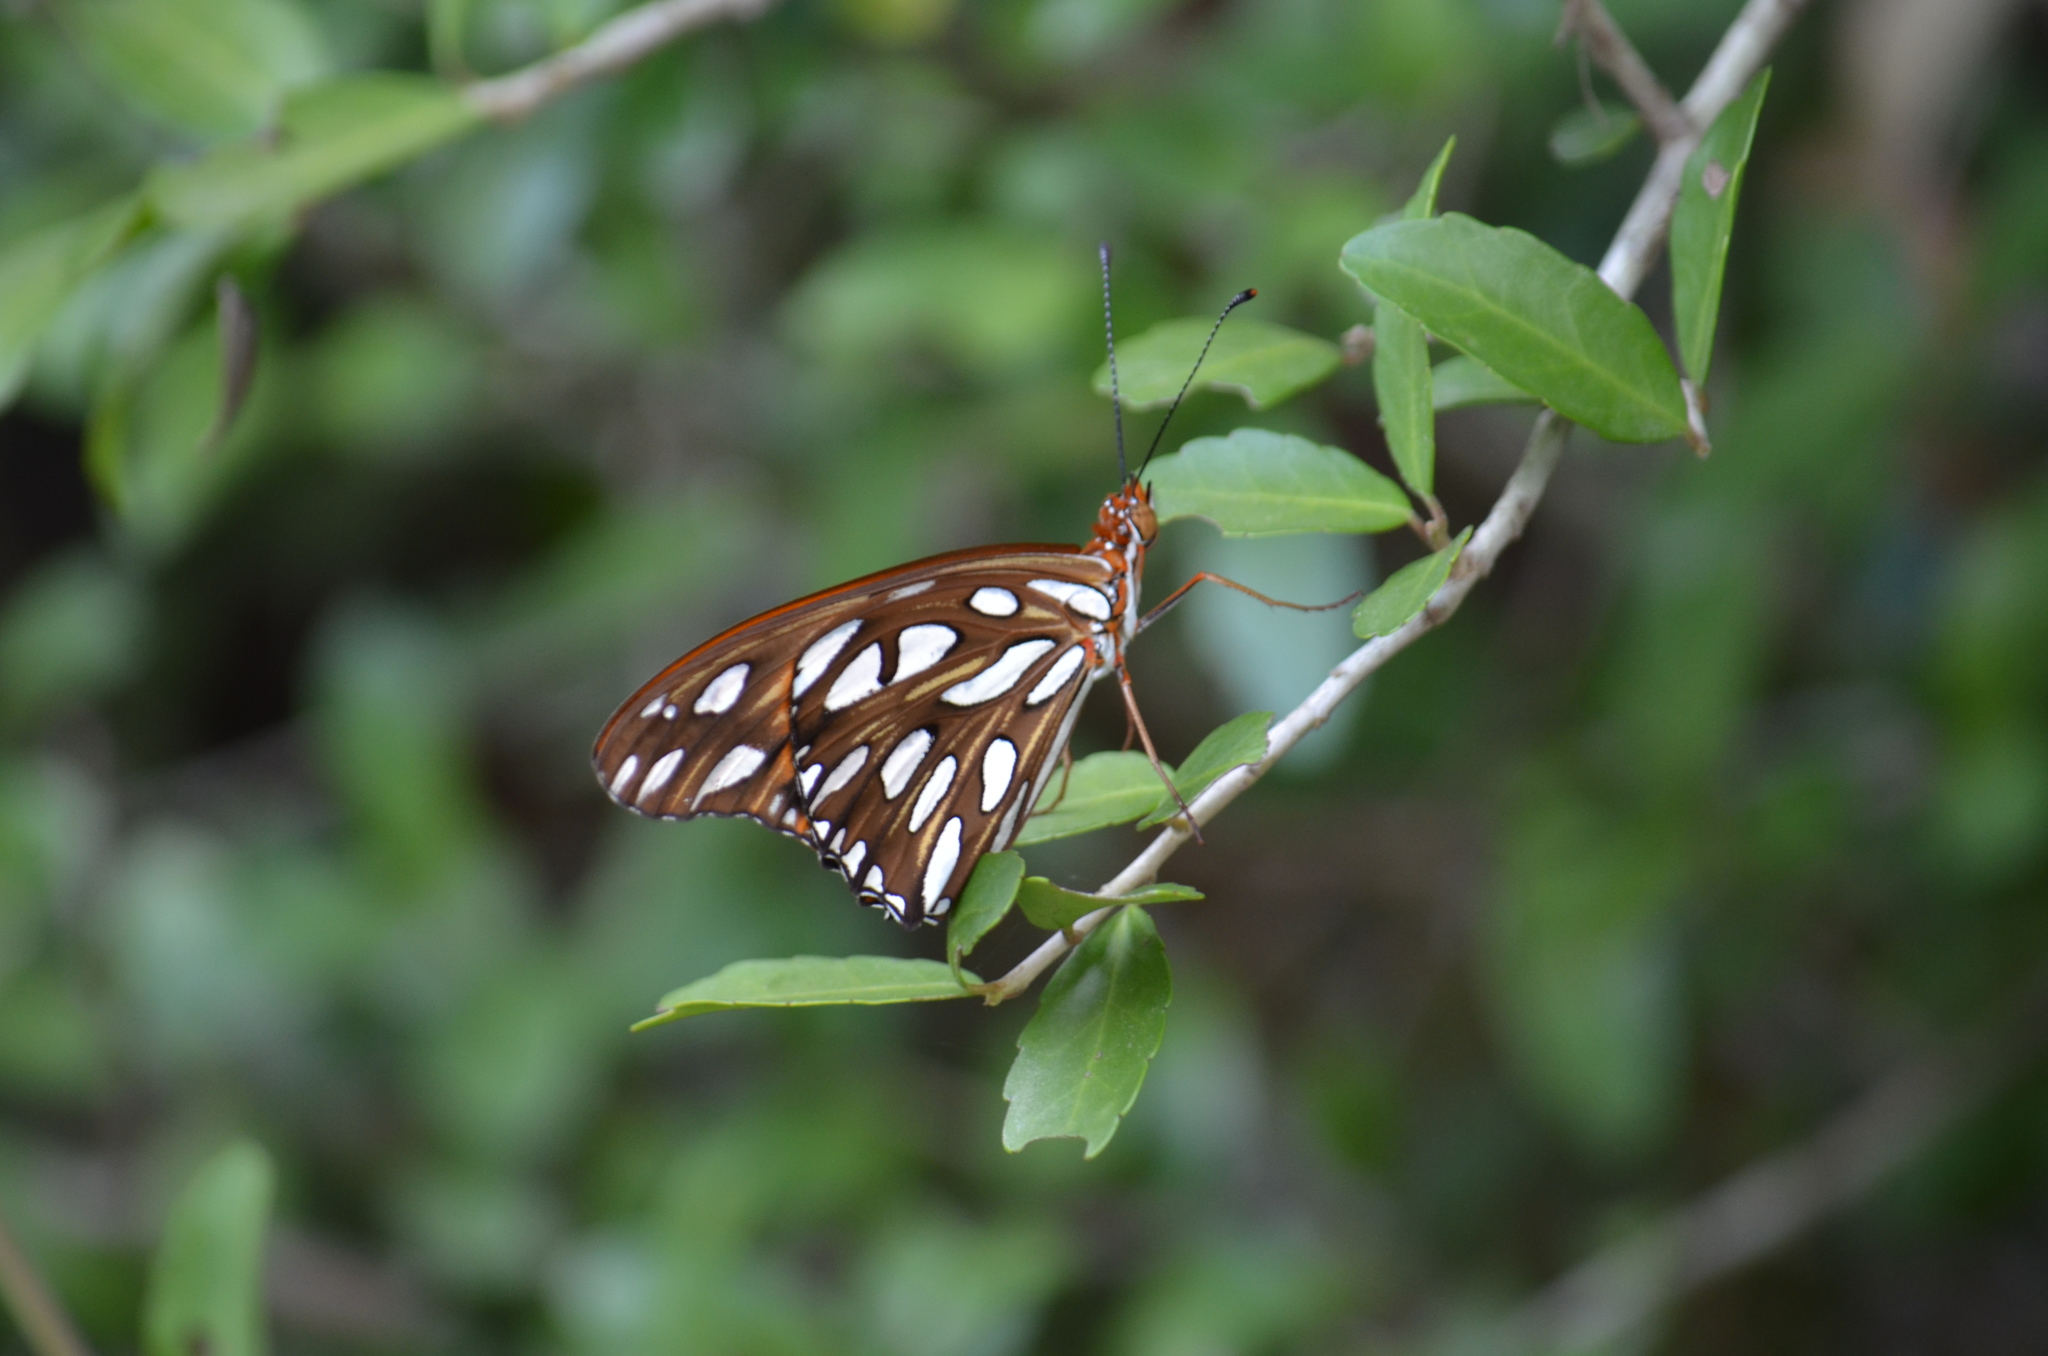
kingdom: Animalia
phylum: Arthropoda
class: Insecta
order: Lepidoptera
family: Nymphalidae
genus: Dione
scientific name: Dione vanillae
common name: Gulf fritillary
